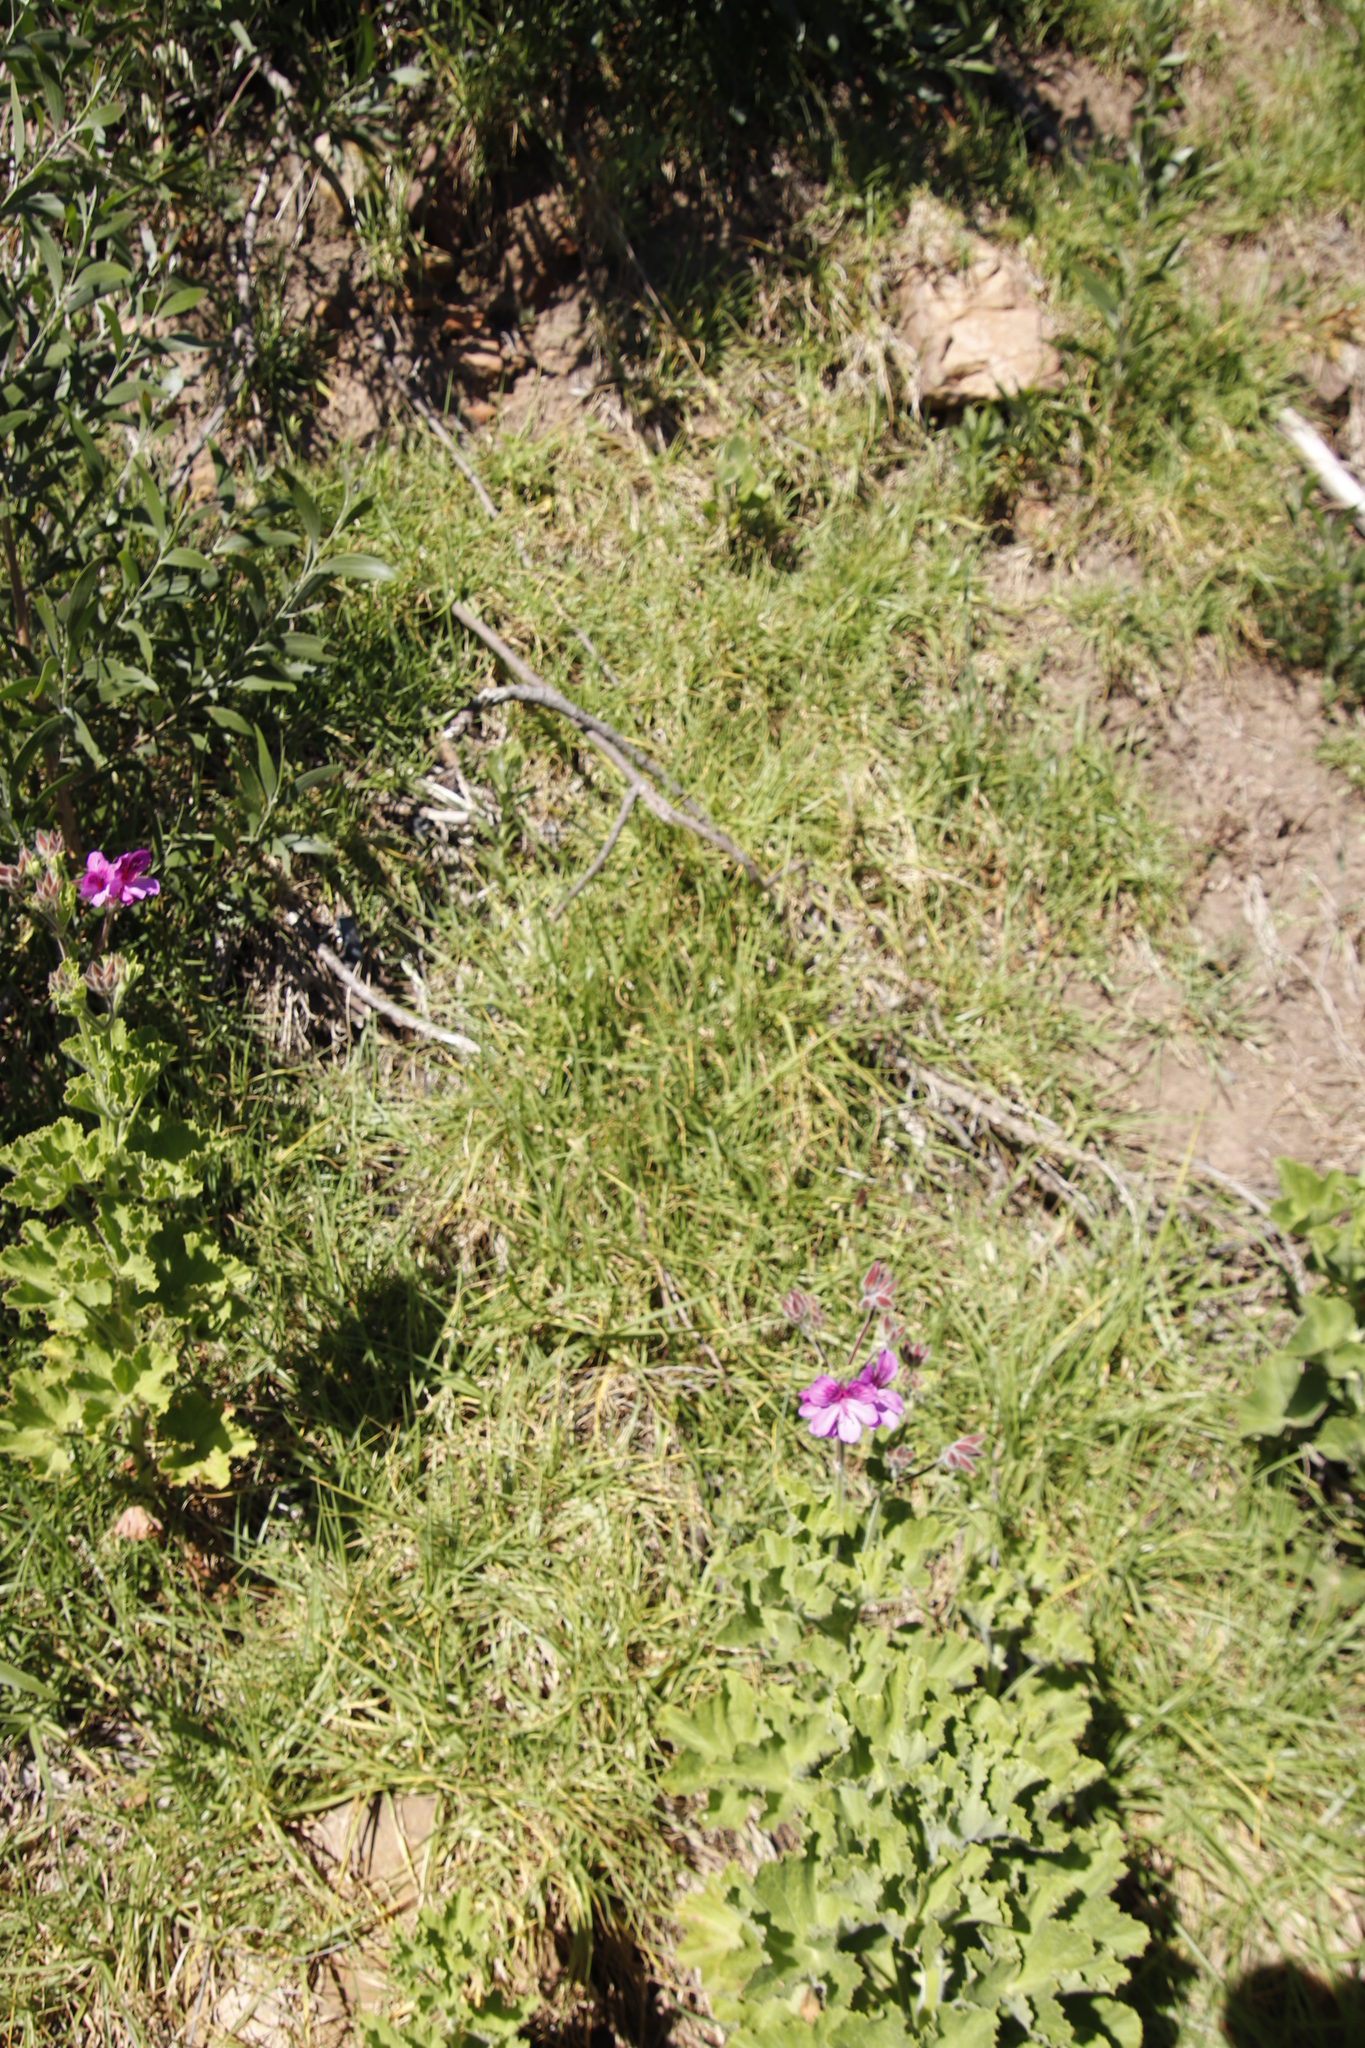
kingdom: Plantae
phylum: Tracheophyta
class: Liliopsida
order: Poales
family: Poaceae
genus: Cenchrus
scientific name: Cenchrus clandestinus
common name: Kikuyugrass
